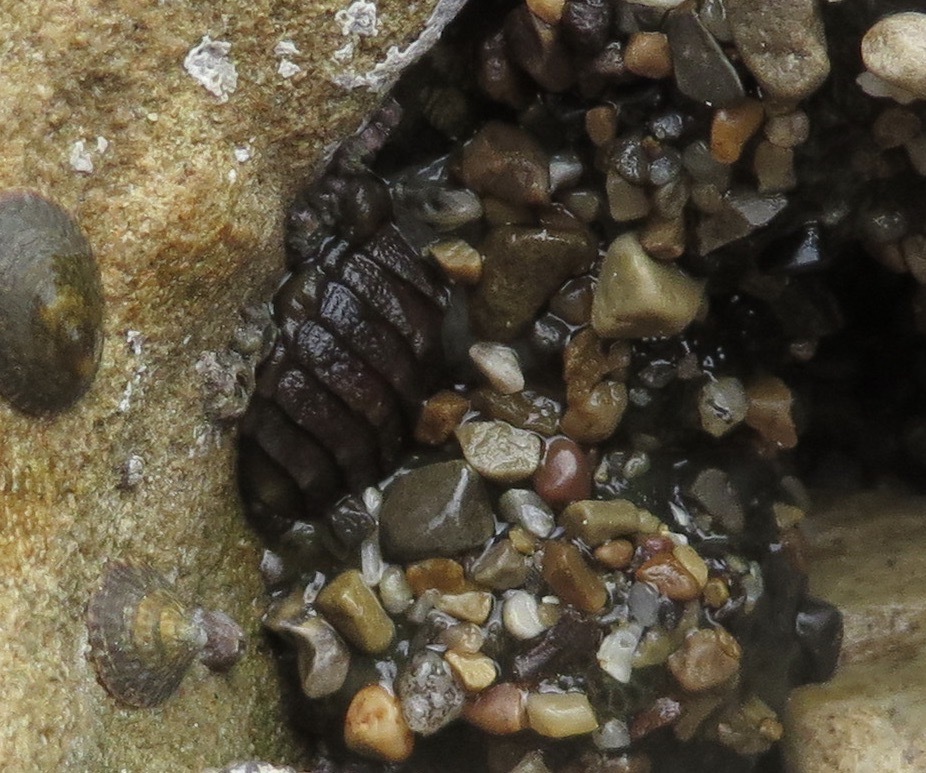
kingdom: Animalia
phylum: Mollusca
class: Polyplacophora
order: Chitonida
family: Tonicellidae
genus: Cyanoplax
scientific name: Cyanoplax hartwegii
